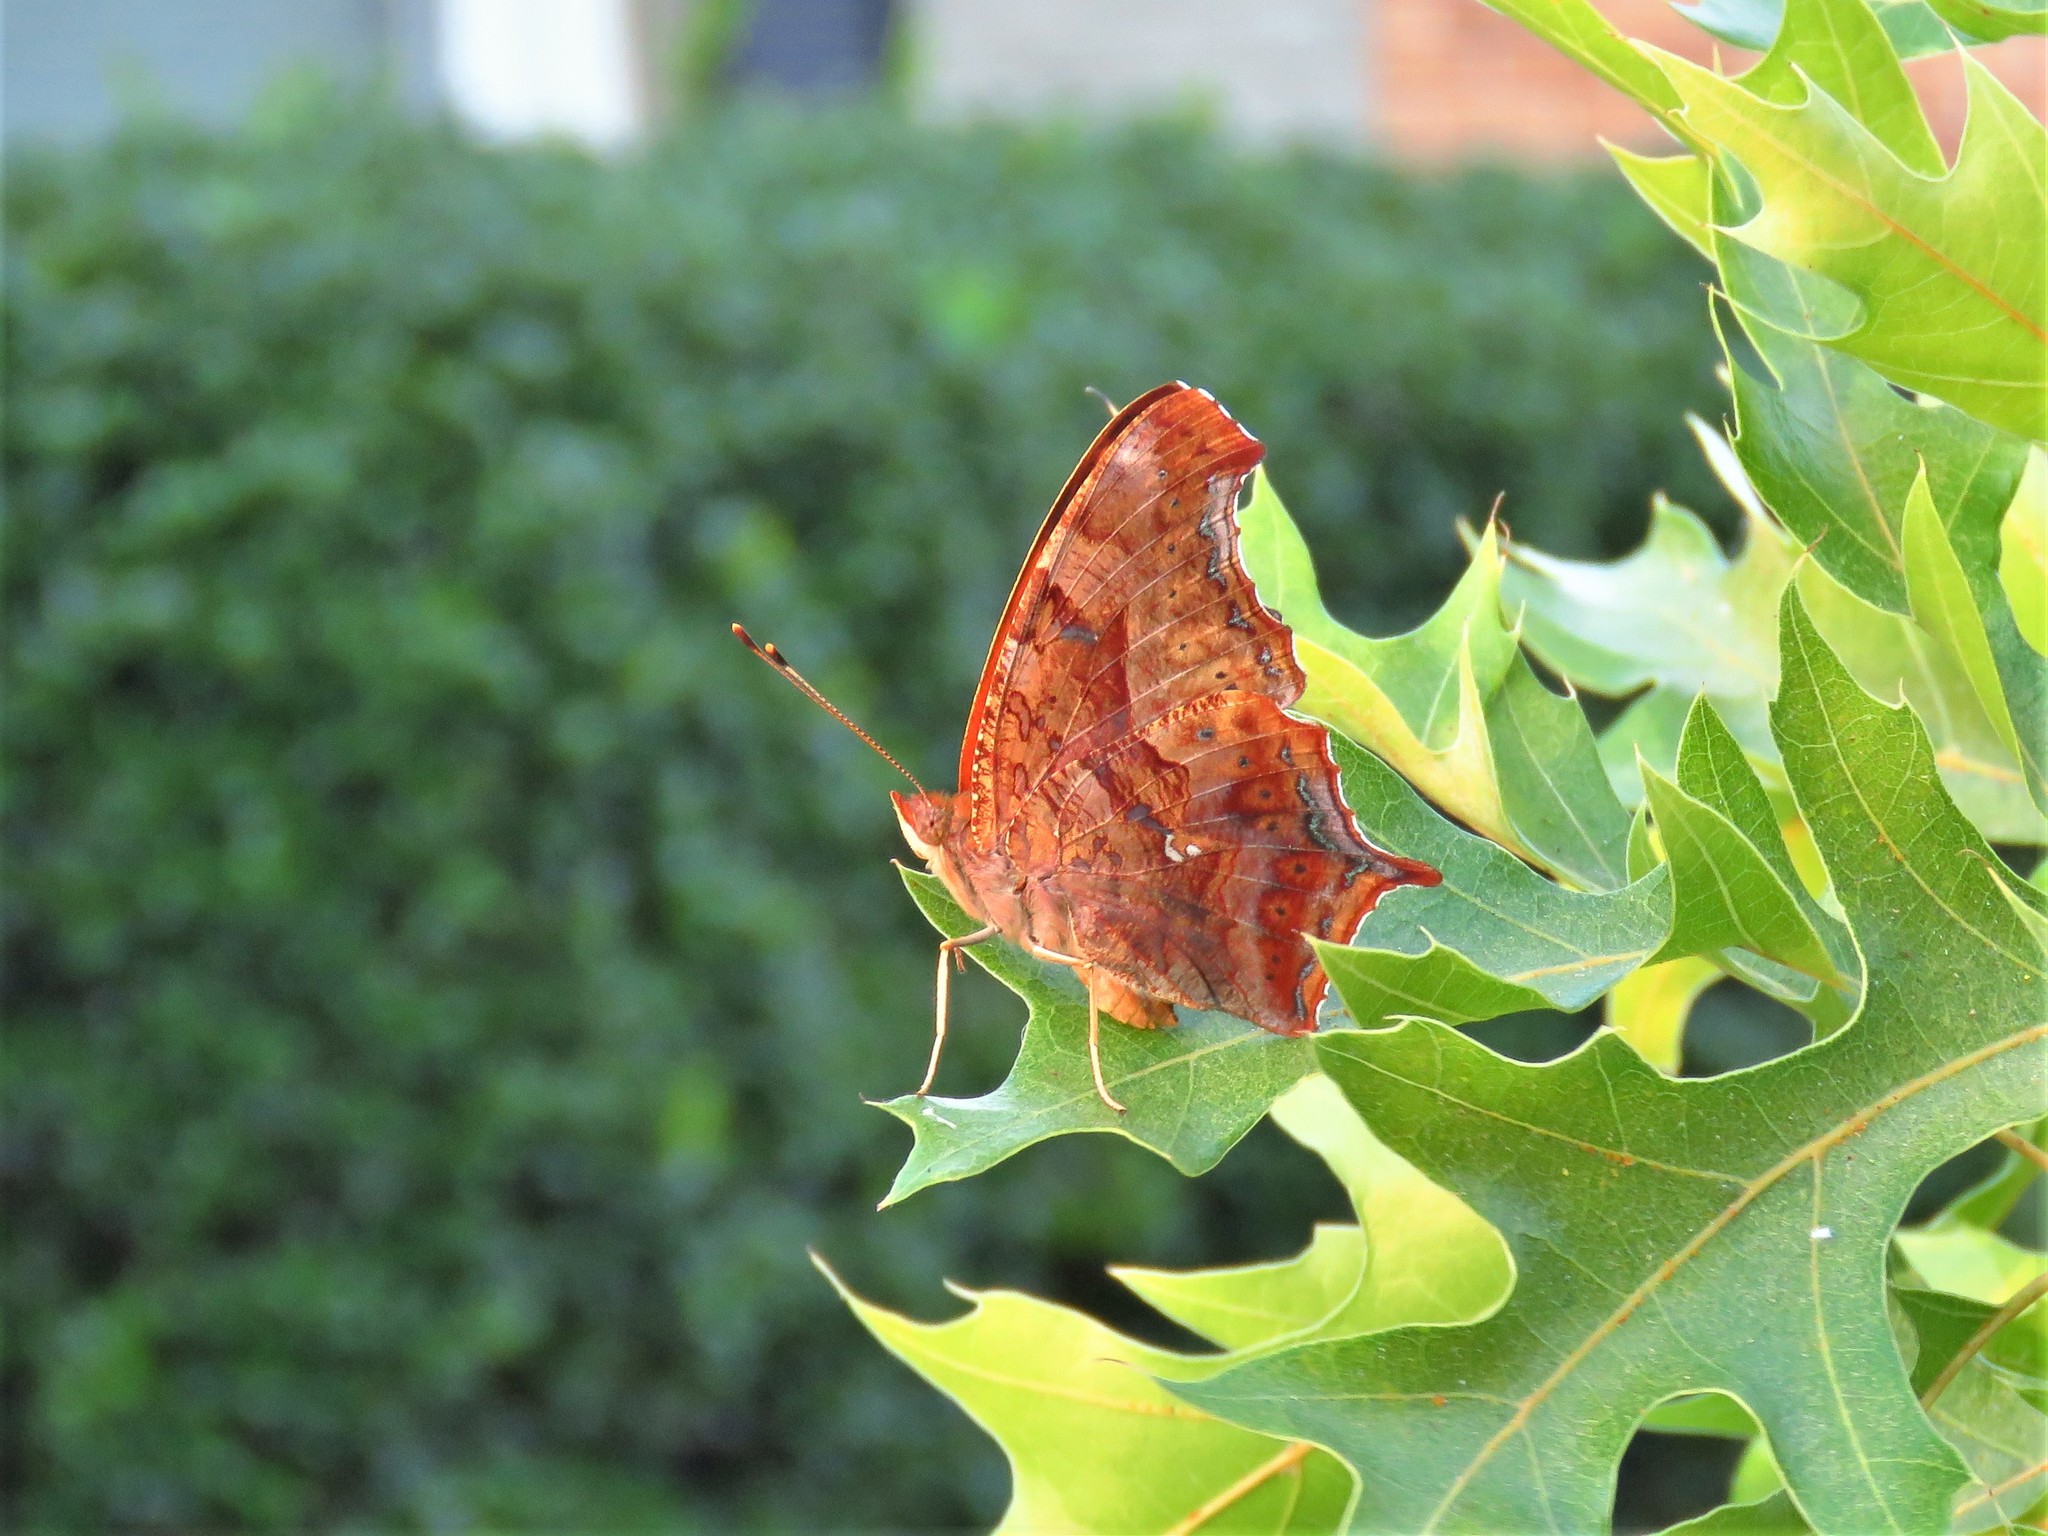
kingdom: Animalia
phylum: Arthropoda
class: Insecta
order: Lepidoptera
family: Nymphalidae
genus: Polygonia
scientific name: Polygonia interrogationis
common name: Question mark
